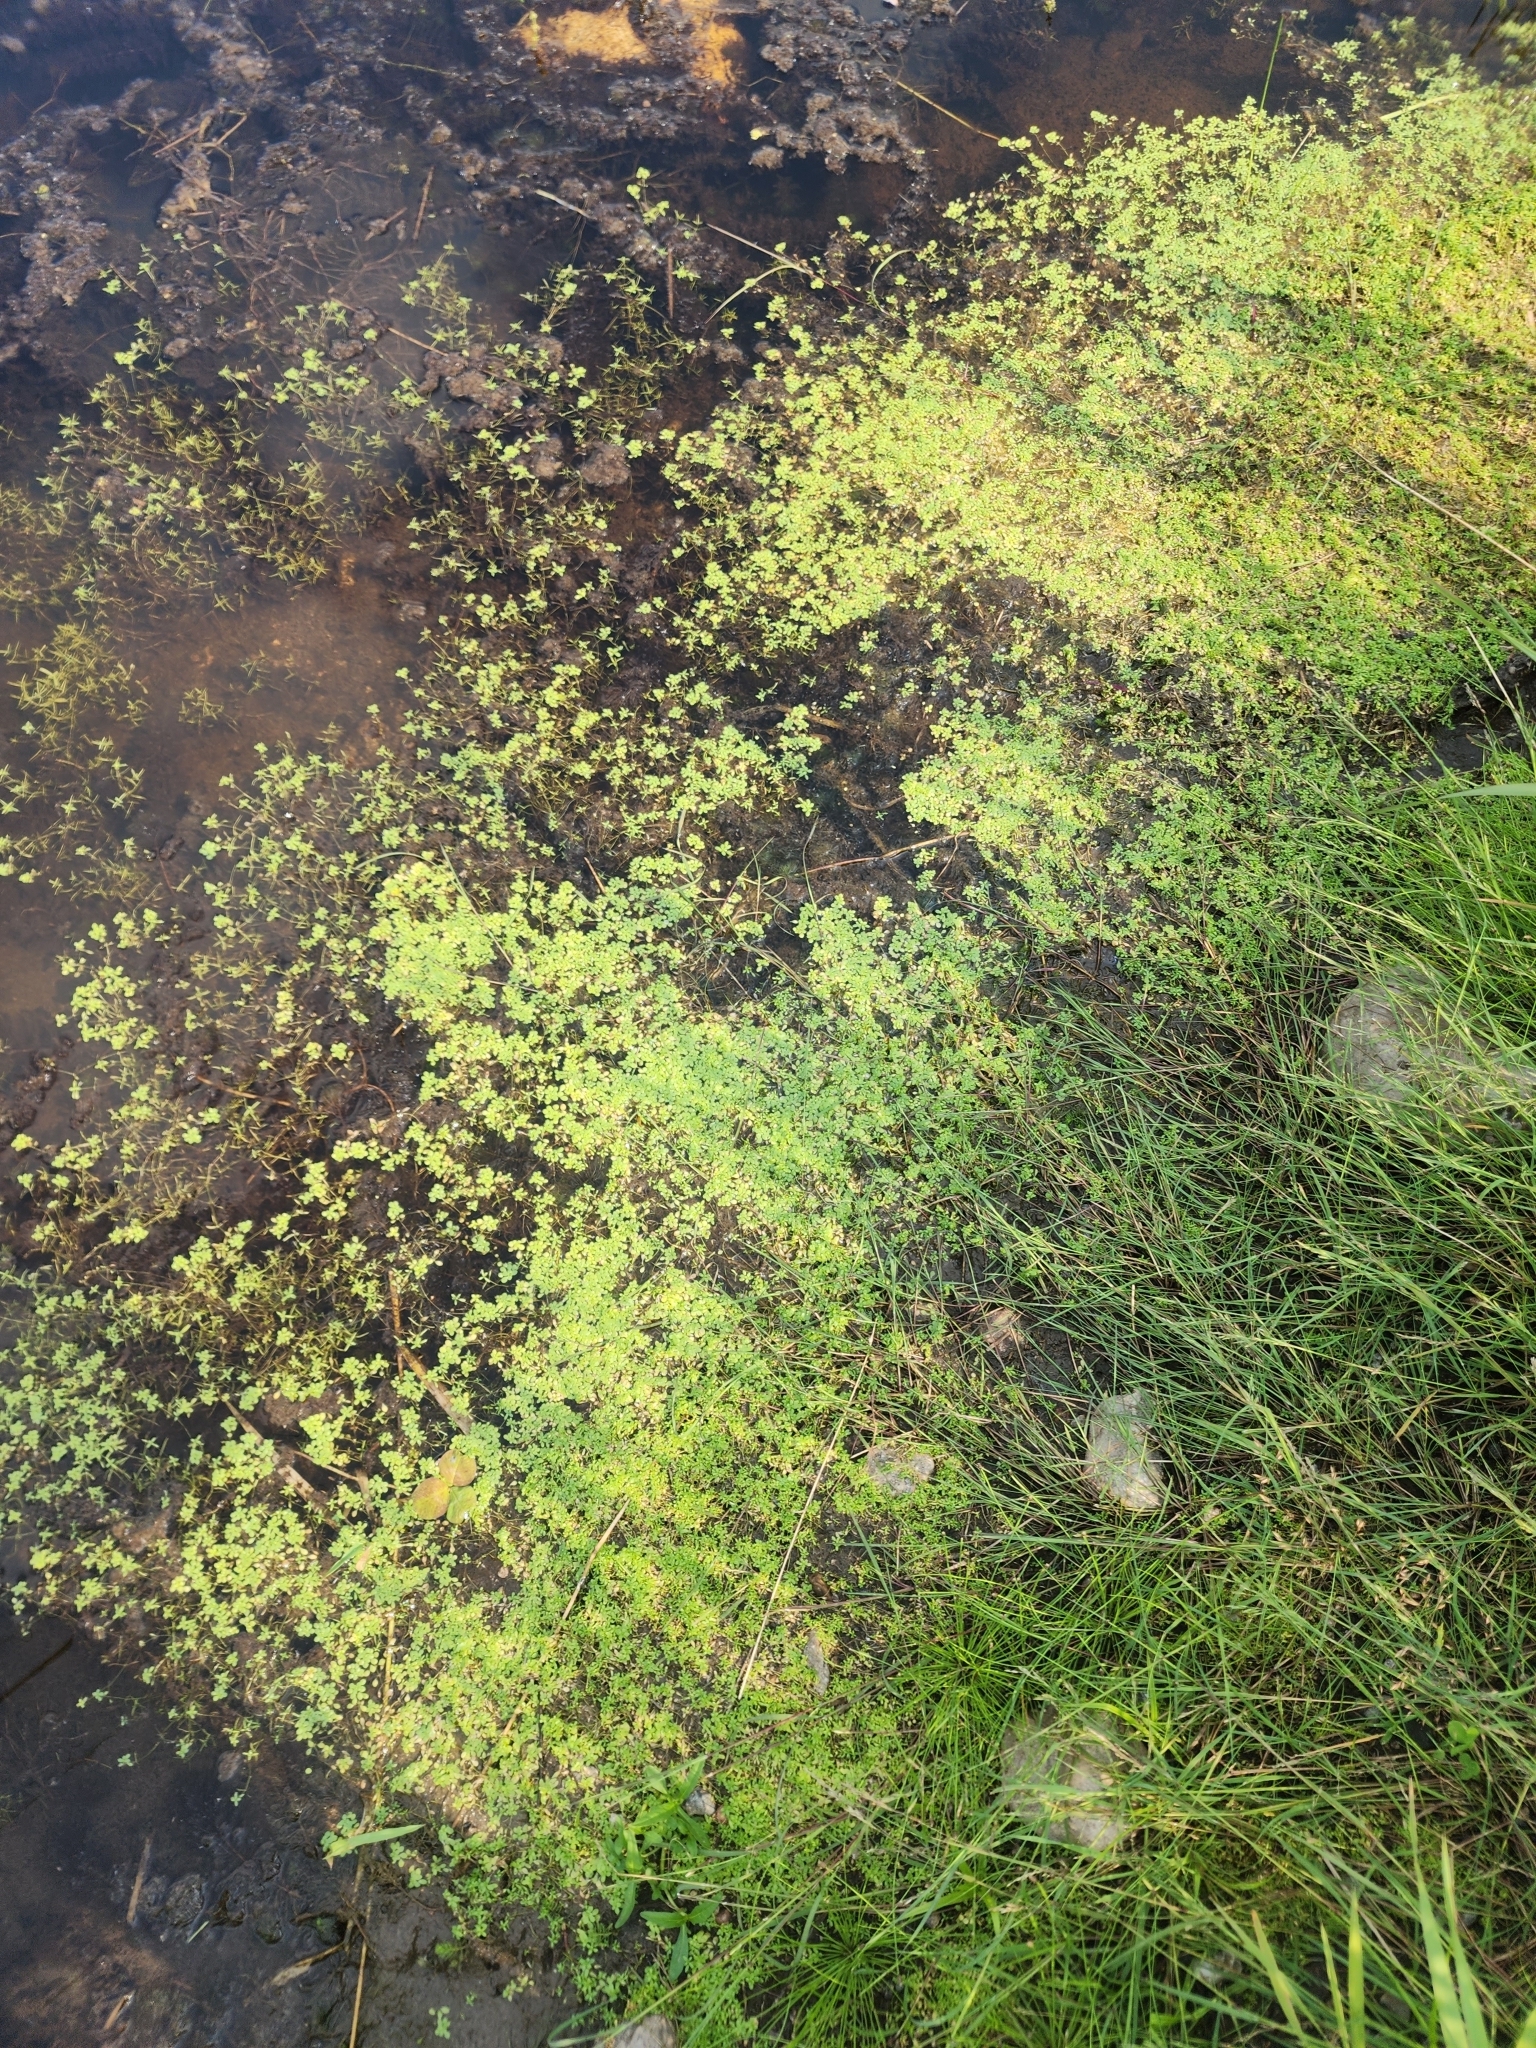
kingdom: Plantae
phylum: Tracheophyta
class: Magnoliopsida
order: Lamiales
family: Plantaginaceae
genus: Callitriche
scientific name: Callitriche palustris
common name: Spring water-starwort
